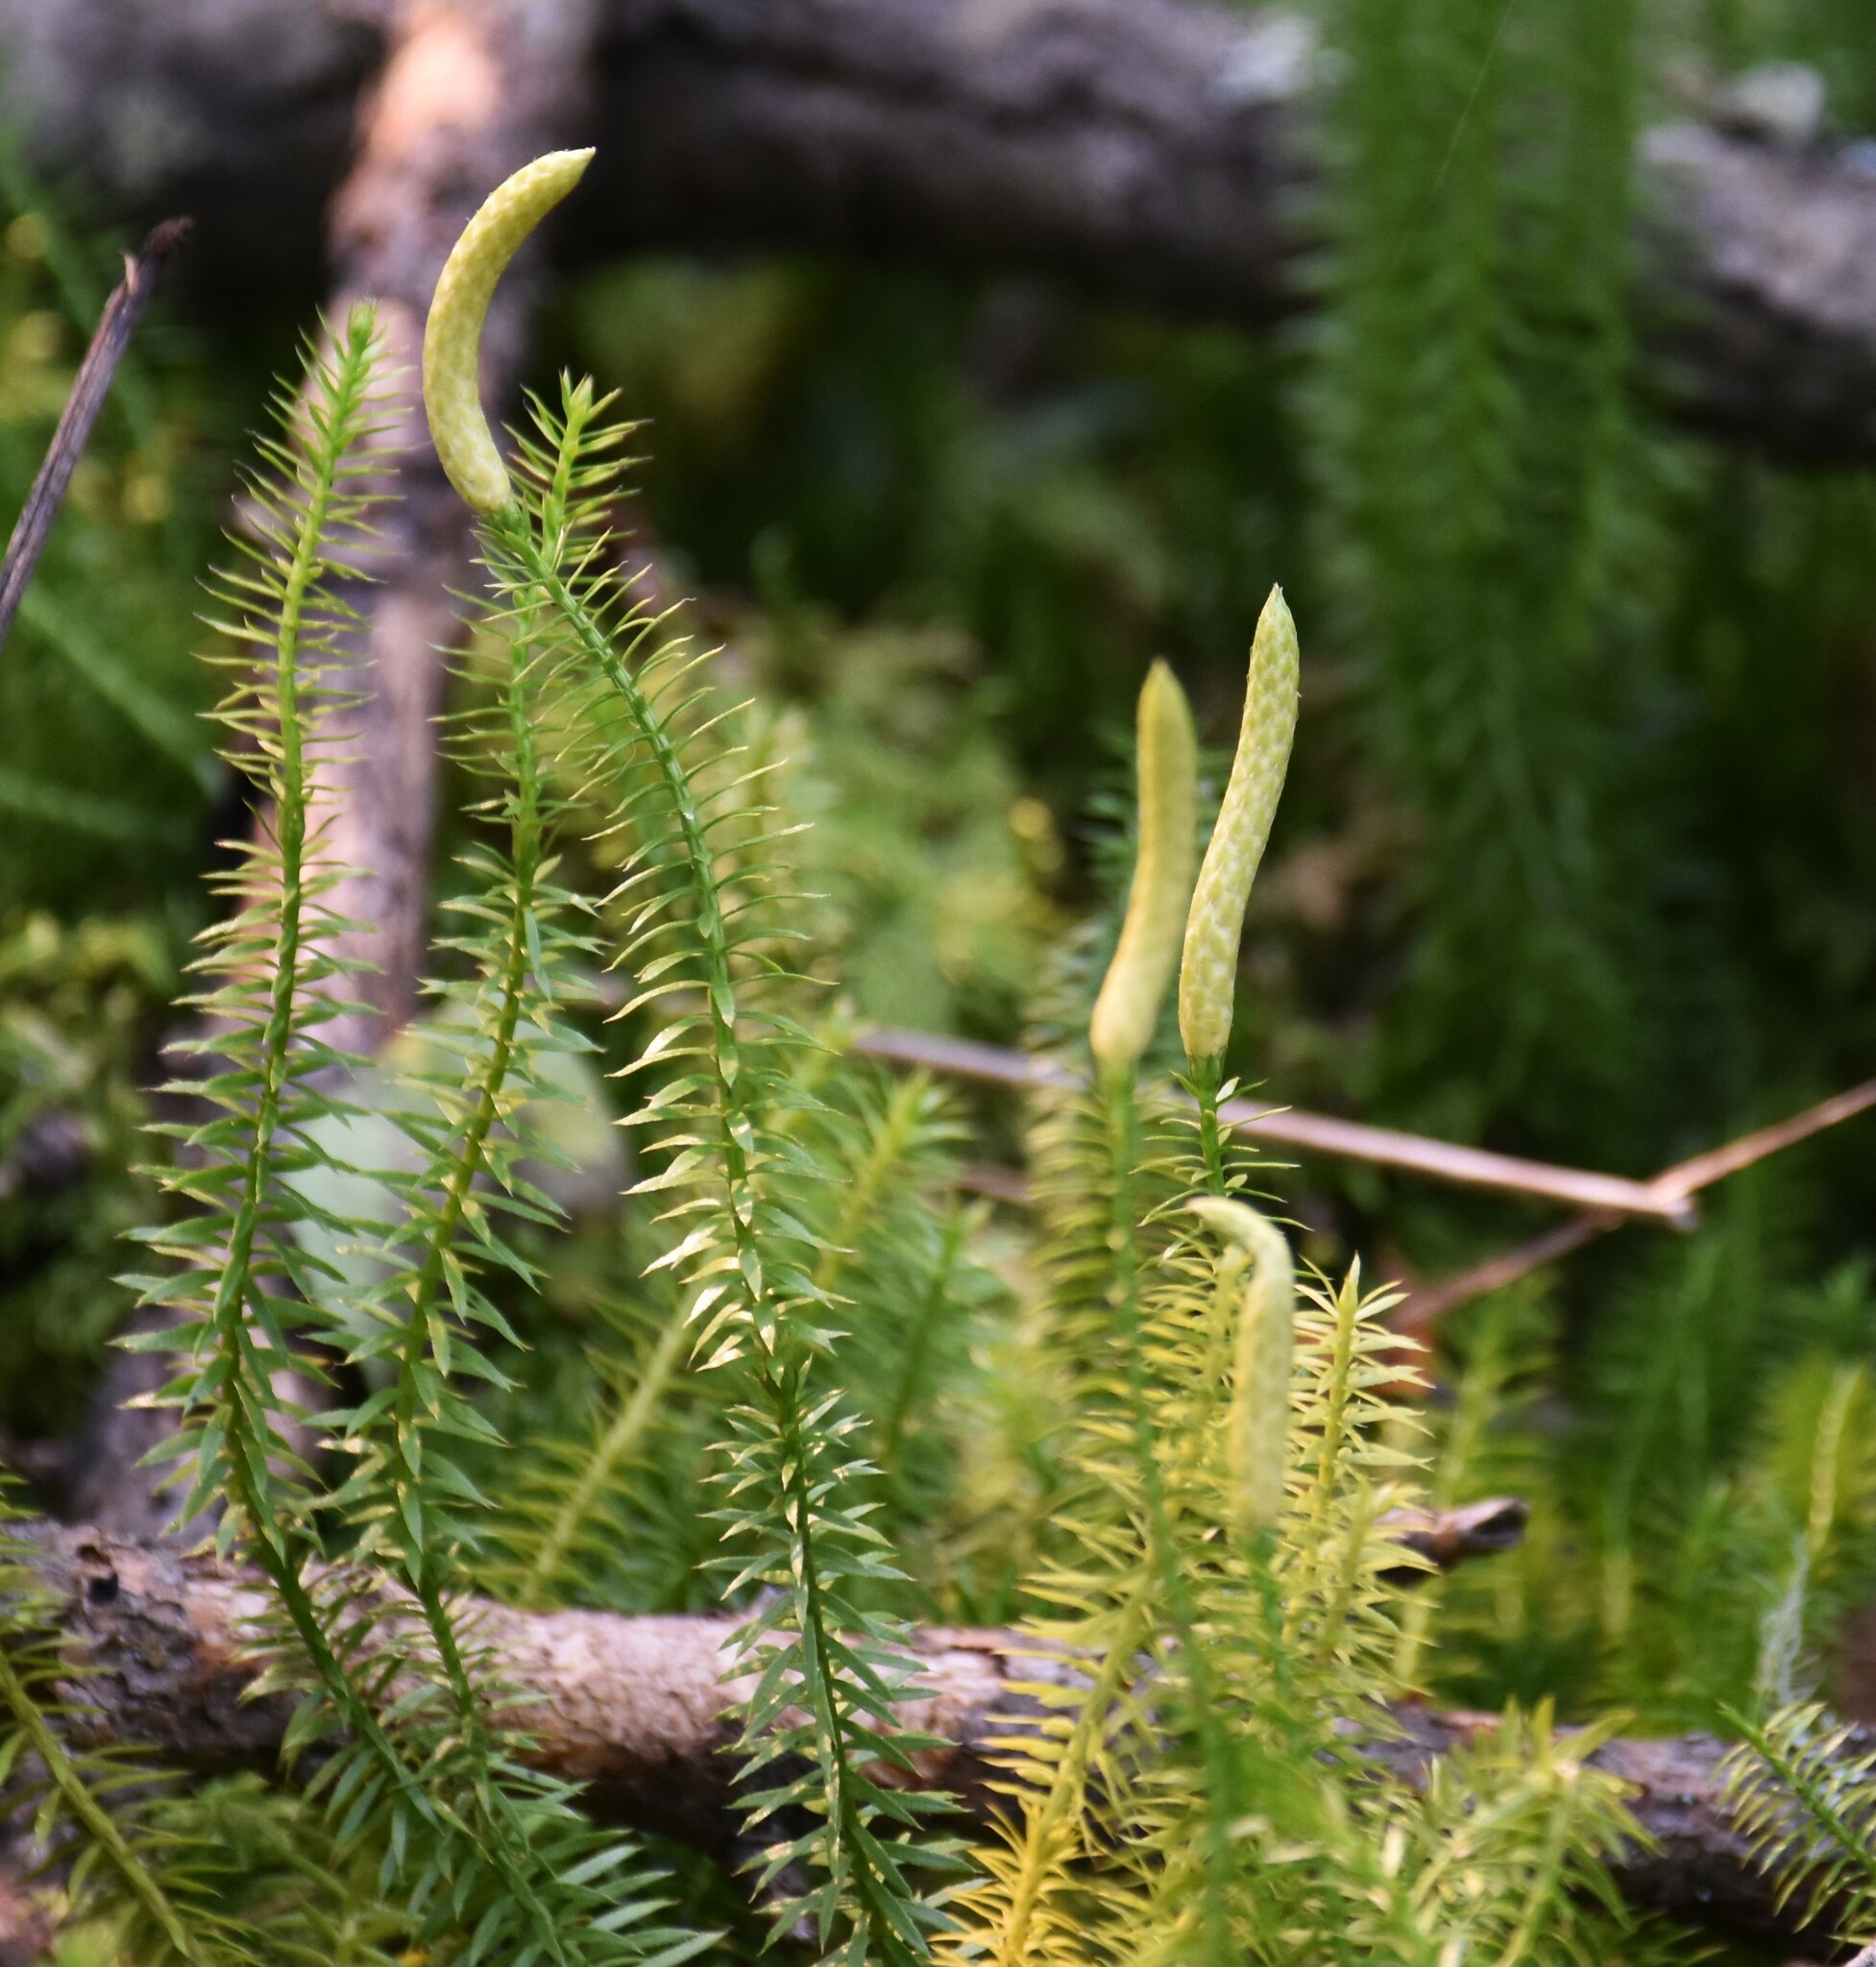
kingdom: Plantae
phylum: Tracheophyta
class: Lycopodiopsida
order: Lycopodiales
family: Lycopodiaceae
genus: Spinulum
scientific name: Spinulum annotinum
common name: Interrupted club-moss
